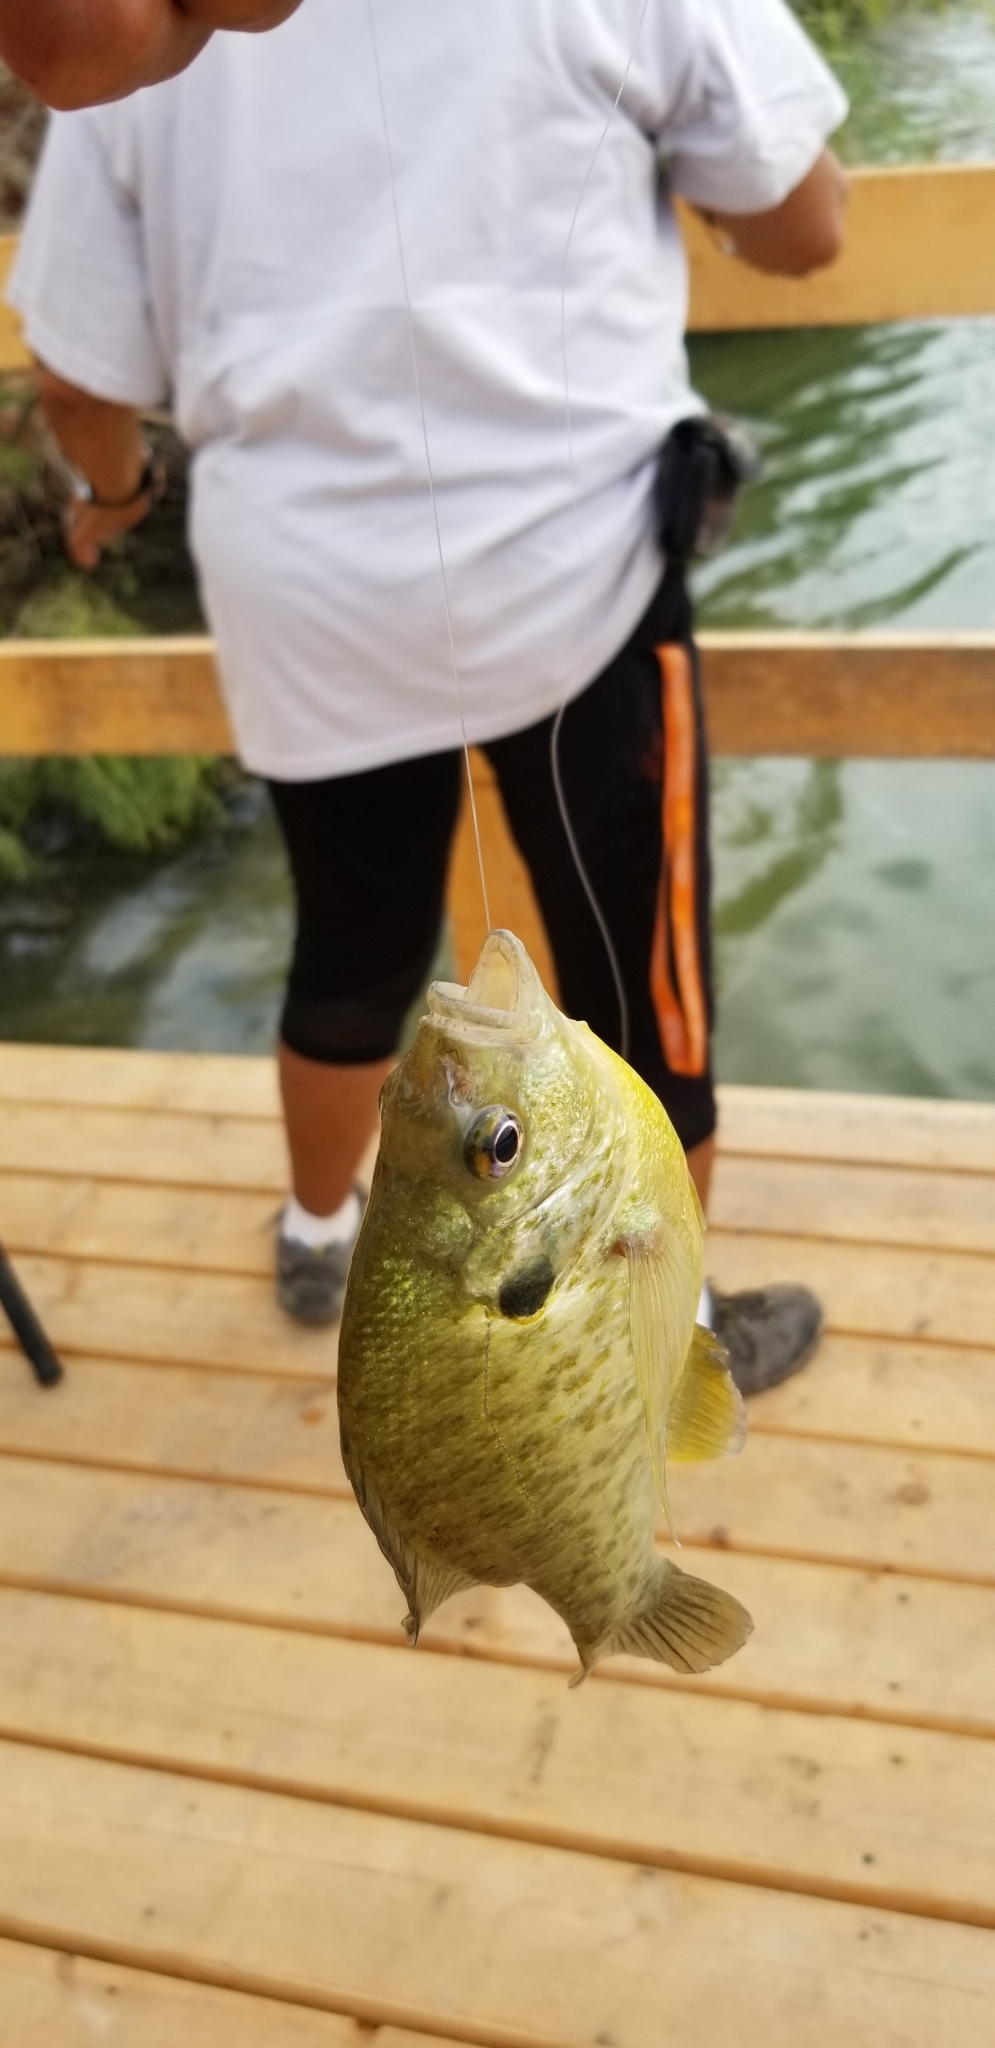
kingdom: Animalia
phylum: Chordata
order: Perciformes
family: Centrarchidae
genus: Lepomis
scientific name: Lepomis microlophus
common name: Redear sunfish
